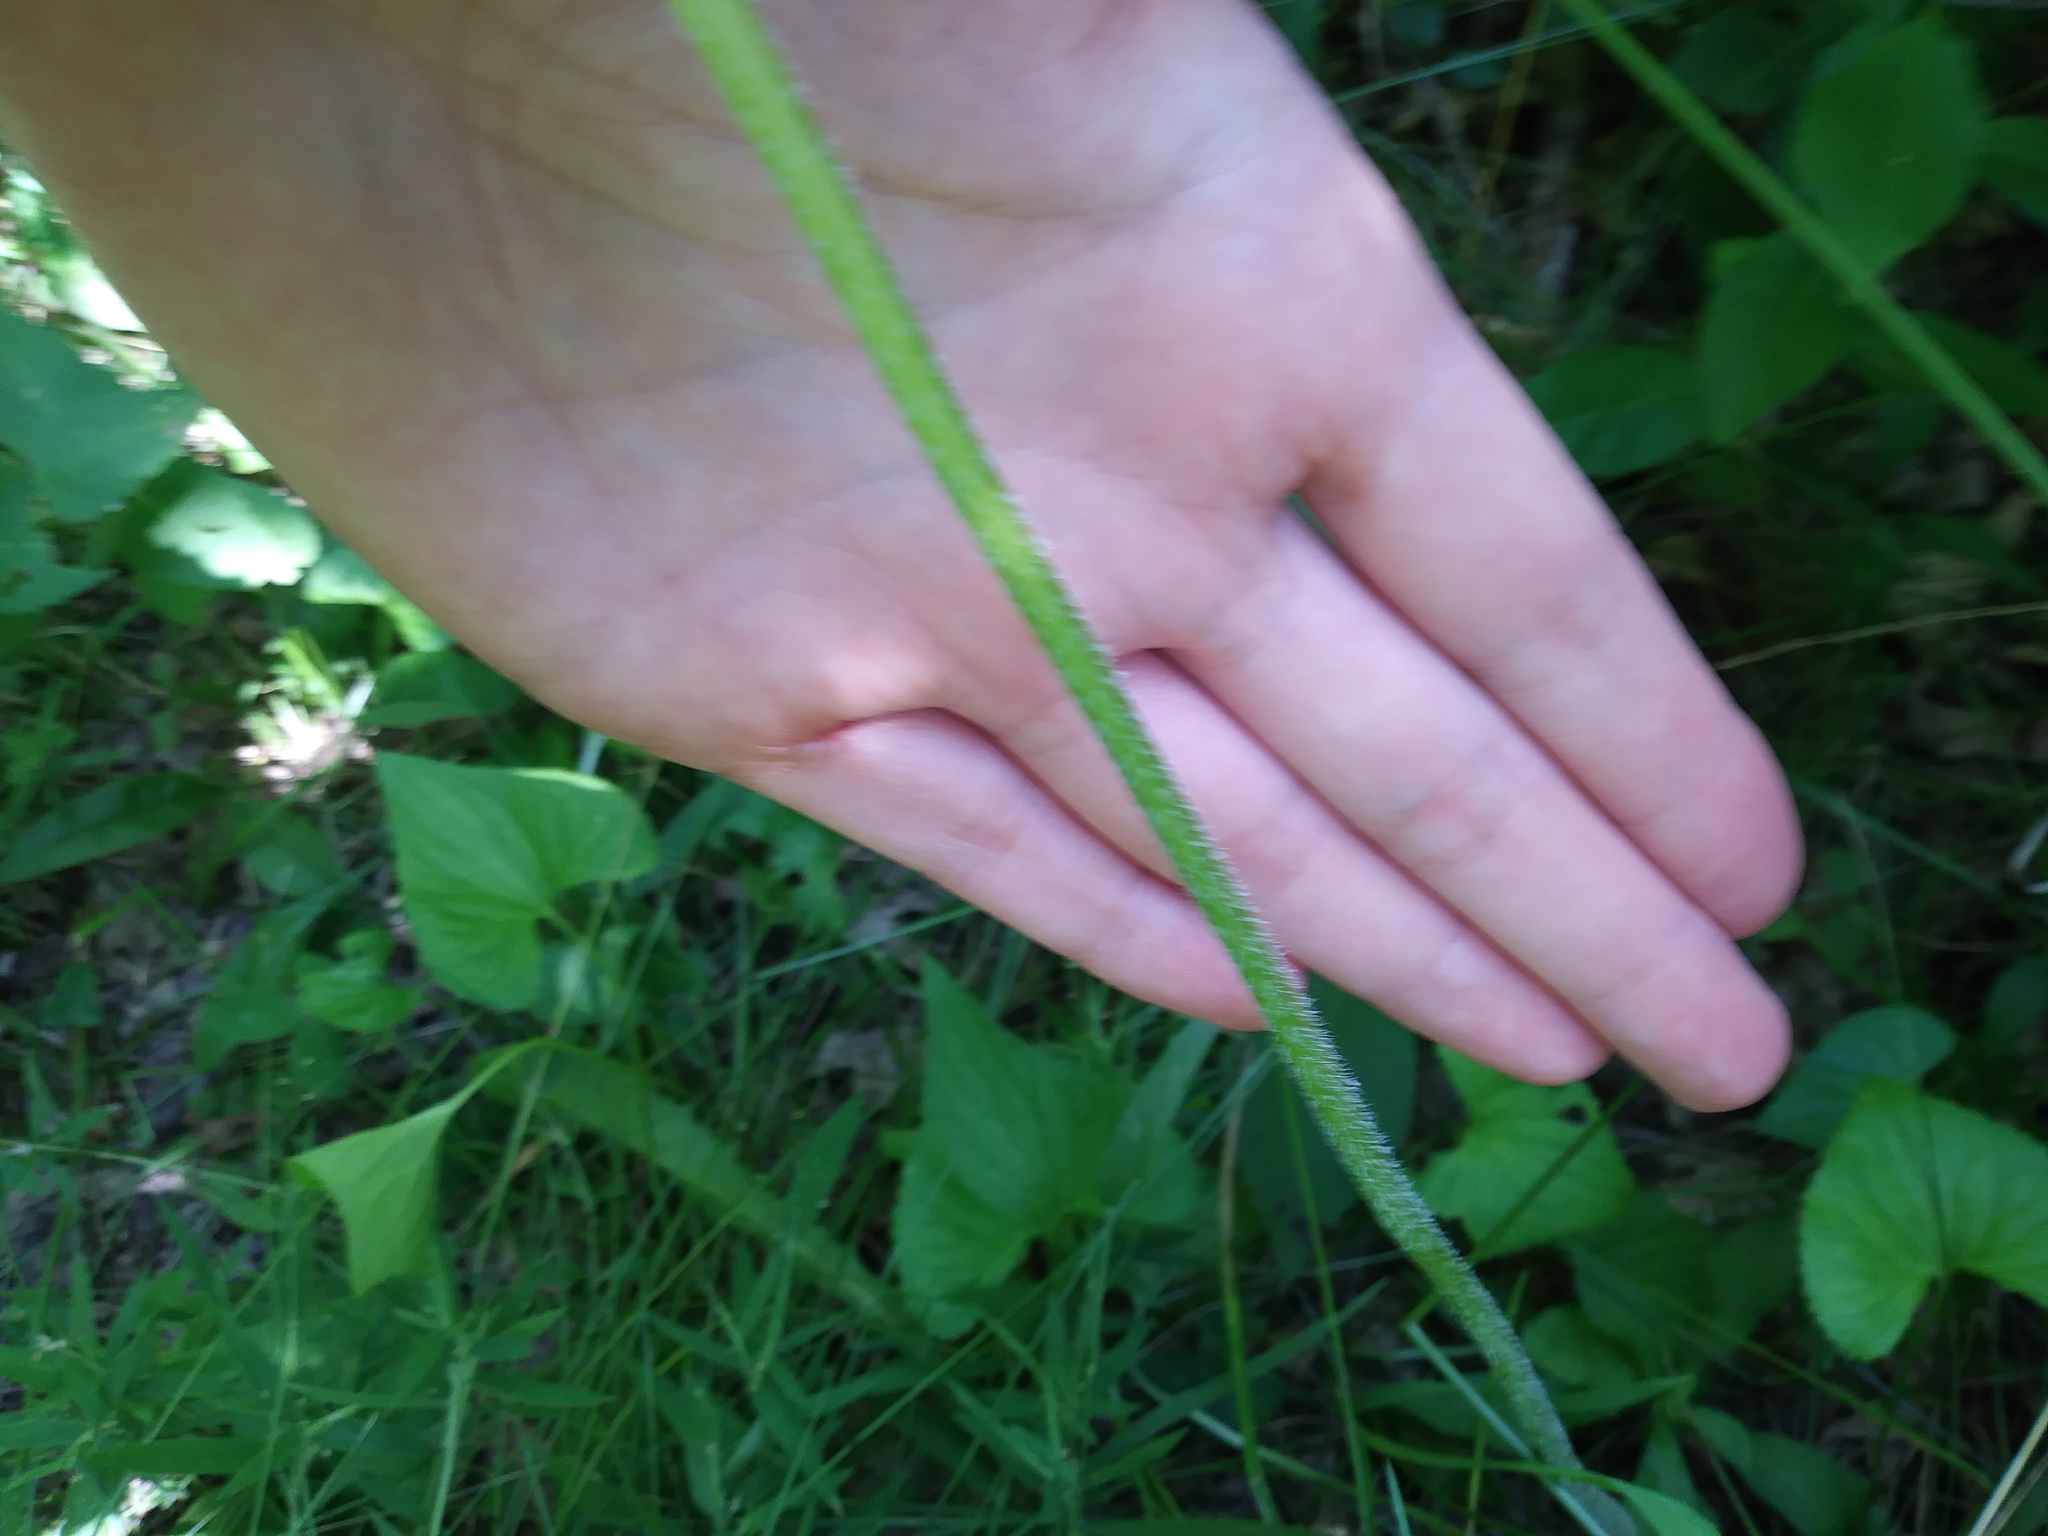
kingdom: Plantae
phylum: Tracheophyta
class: Magnoliopsida
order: Asterales
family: Asteraceae
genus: Silphium
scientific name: Silphium terebinthinaceum
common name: Basal-leaf rosinweed
